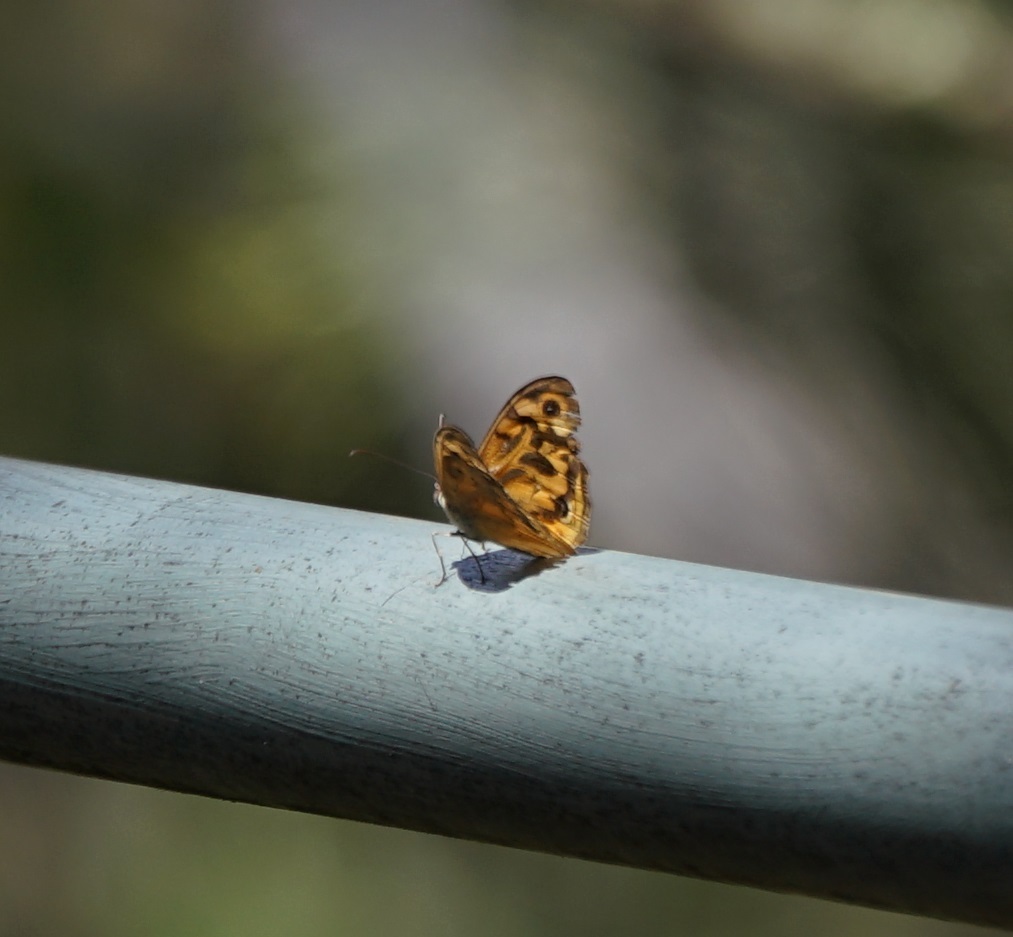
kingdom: Animalia
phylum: Arthropoda
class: Insecta
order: Lepidoptera
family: Nymphalidae
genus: Heteronympha
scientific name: Heteronympha merope
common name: Common brown
